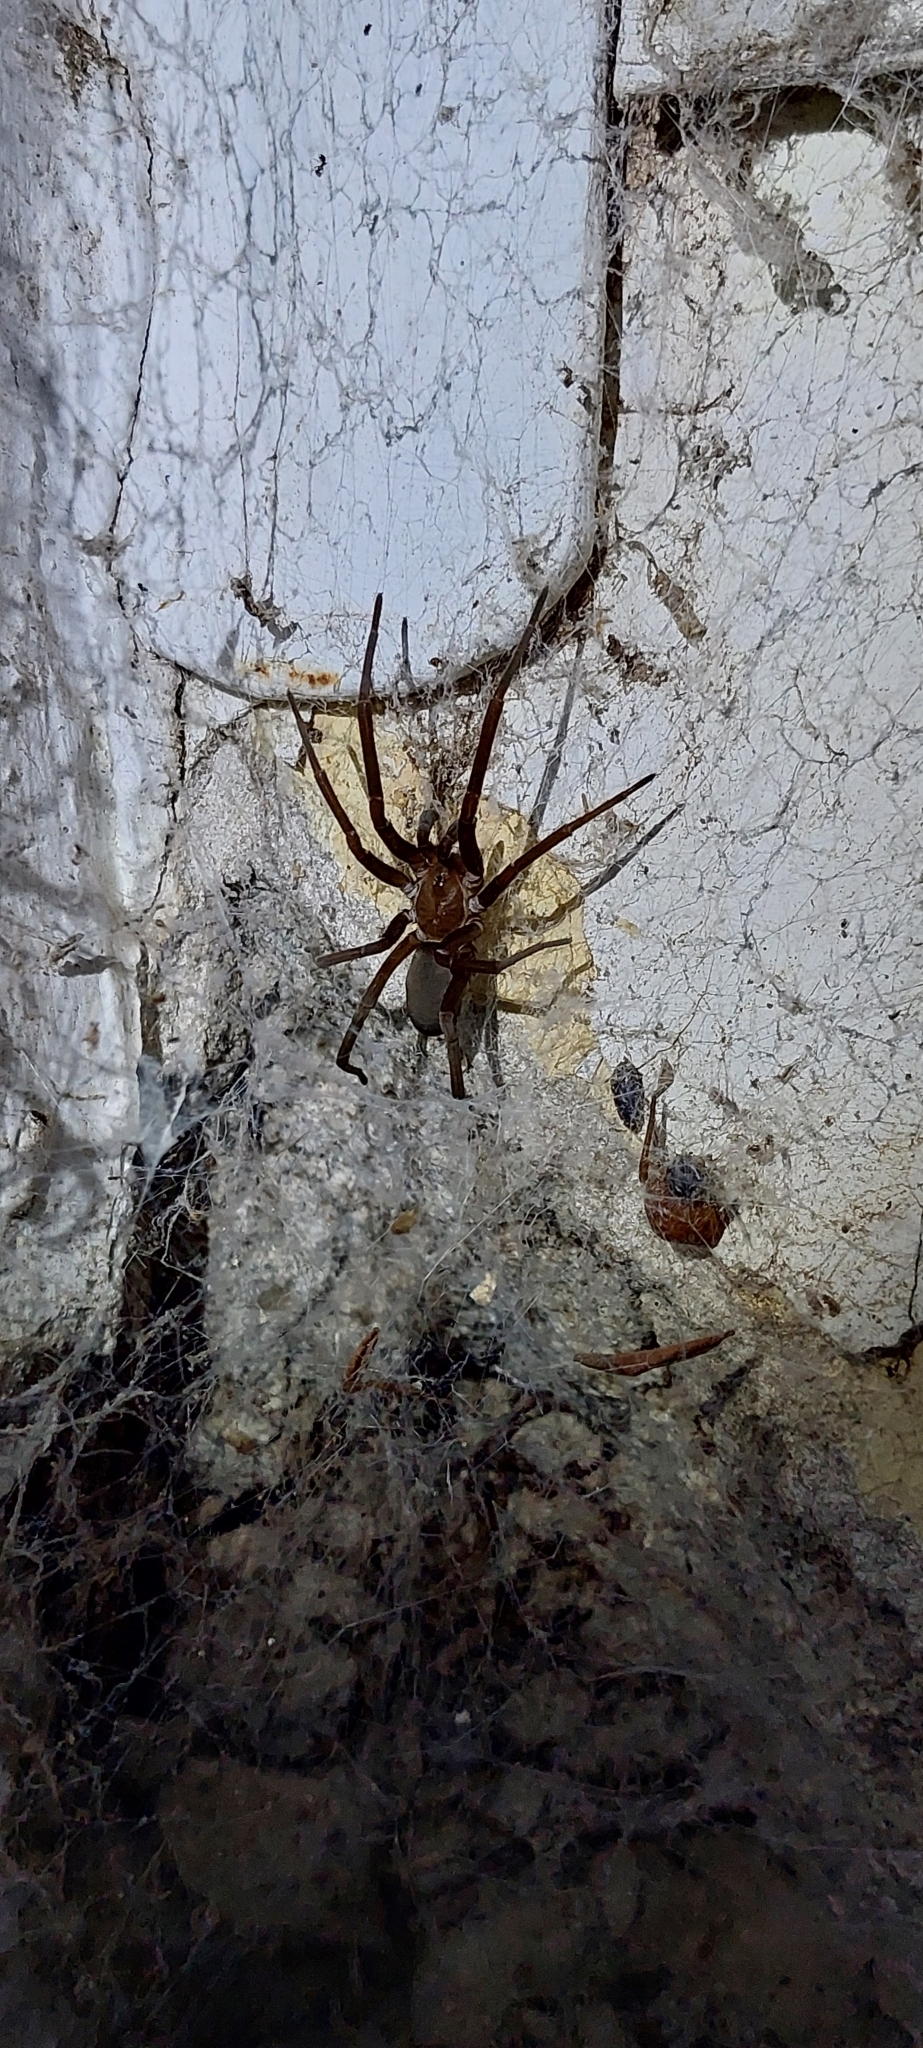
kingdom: Animalia
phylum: Arthropoda
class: Arachnida
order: Araneae
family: Filistatidae
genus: Kukulcania
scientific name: Kukulcania hibernalis
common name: Crevice weaver
